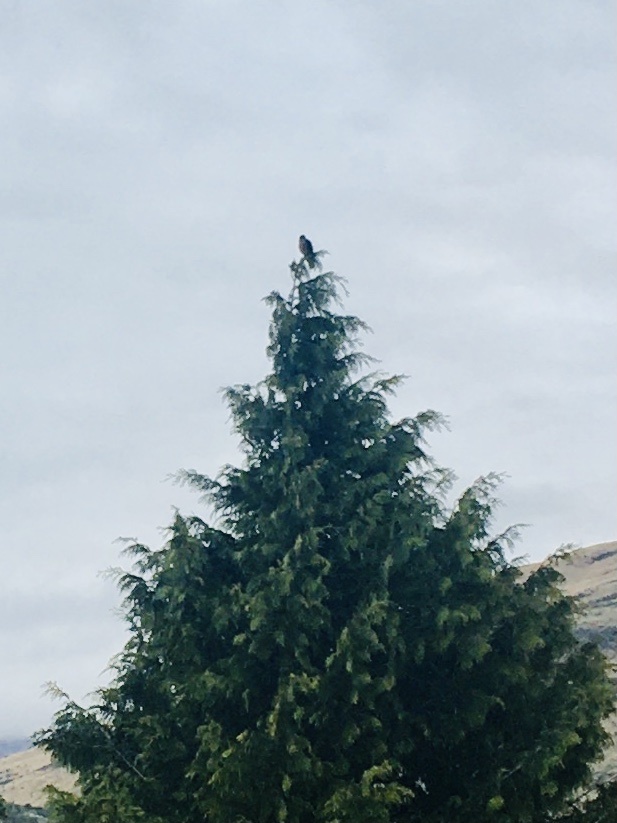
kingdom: Animalia
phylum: Chordata
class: Aves
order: Falconiformes
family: Falconidae
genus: Falco
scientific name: Falco novaeseelandiae
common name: New zealand falcon
